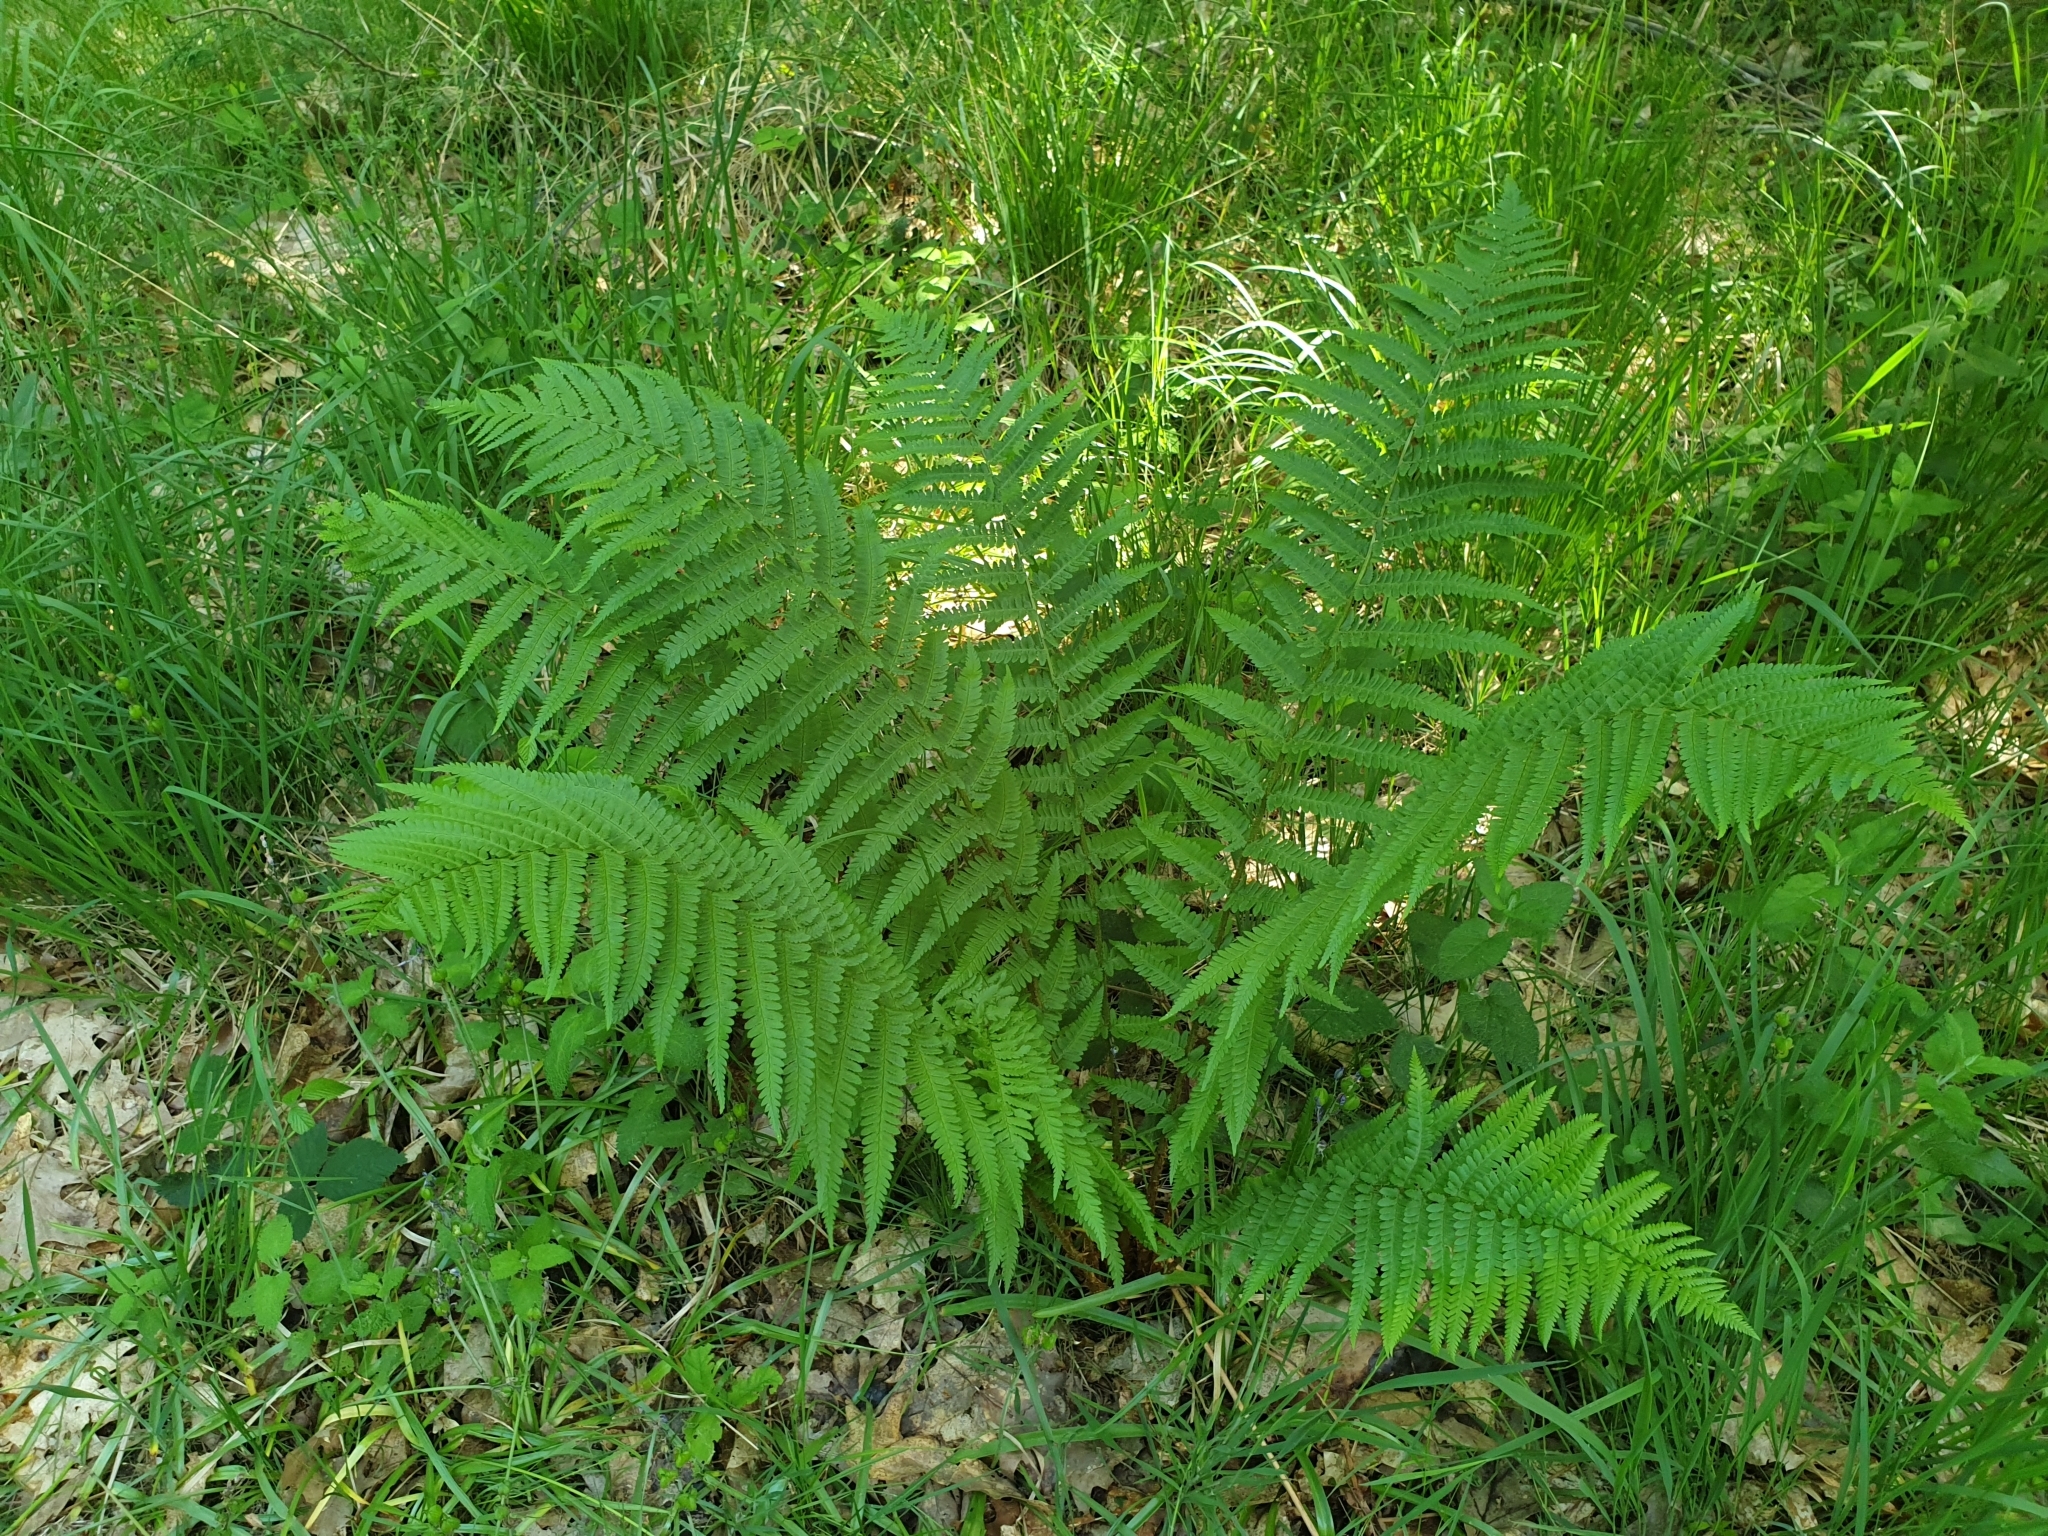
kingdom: Plantae
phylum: Tracheophyta
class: Polypodiopsida
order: Polypodiales
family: Dryopteridaceae
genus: Dryopteris
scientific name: Dryopteris filix-mas
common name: Male fern
